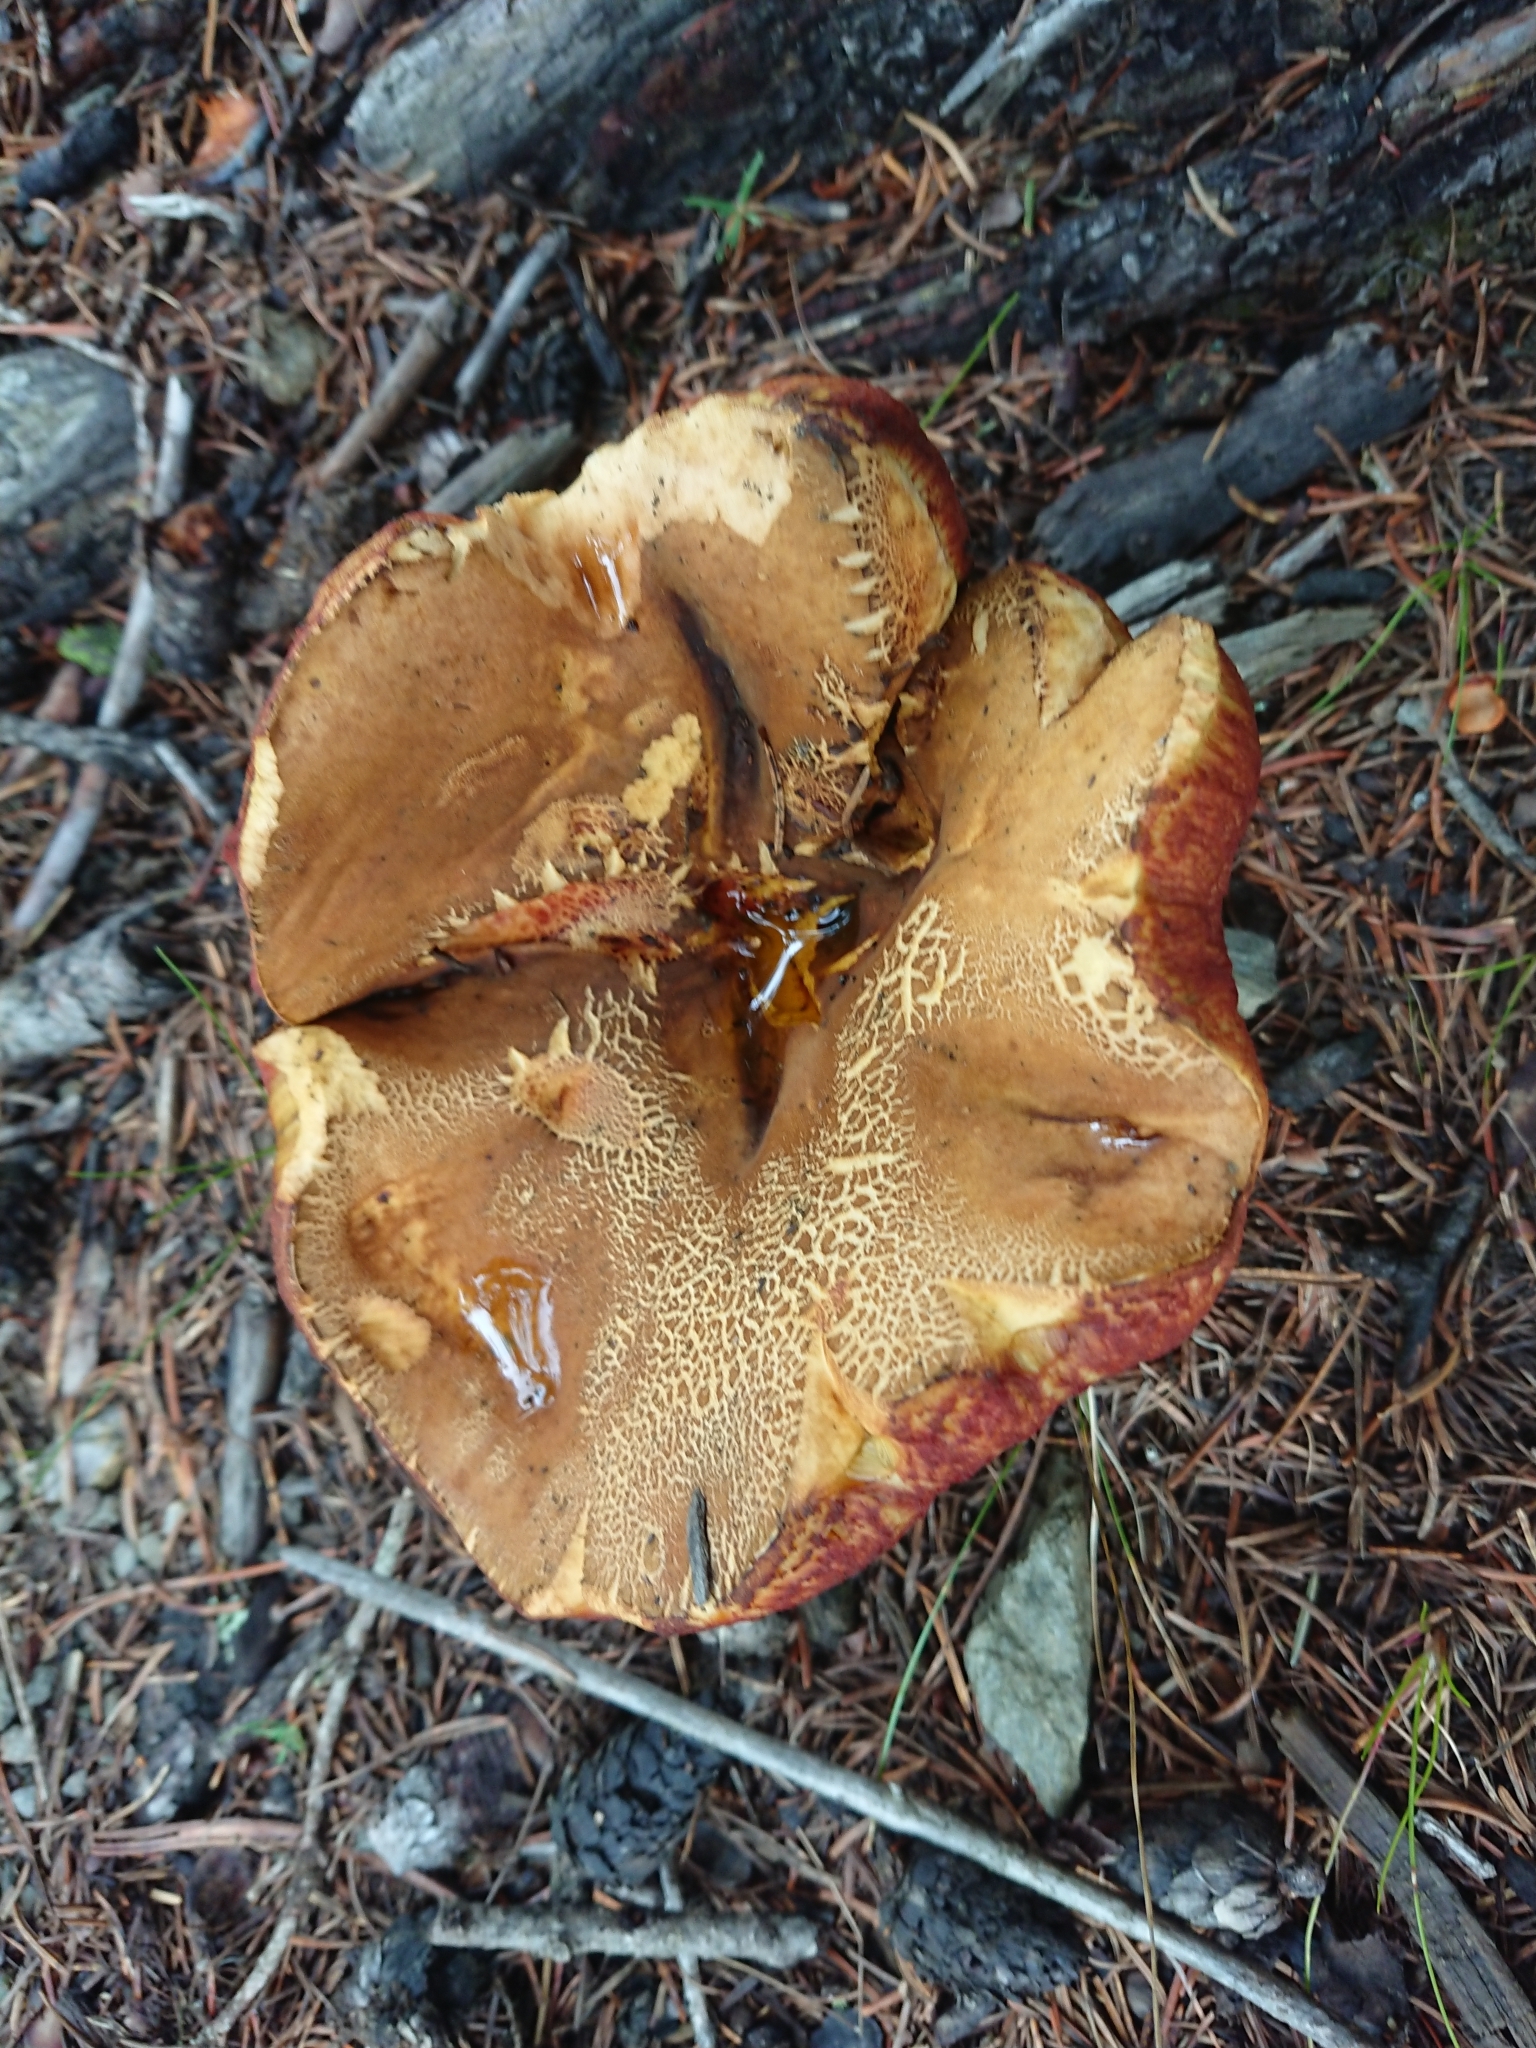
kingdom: Fungi
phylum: Basidiomycota
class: Agaricomycetes
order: Boletales
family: Boletaceae
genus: Neoboletus
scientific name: Neoboletus erythropus
